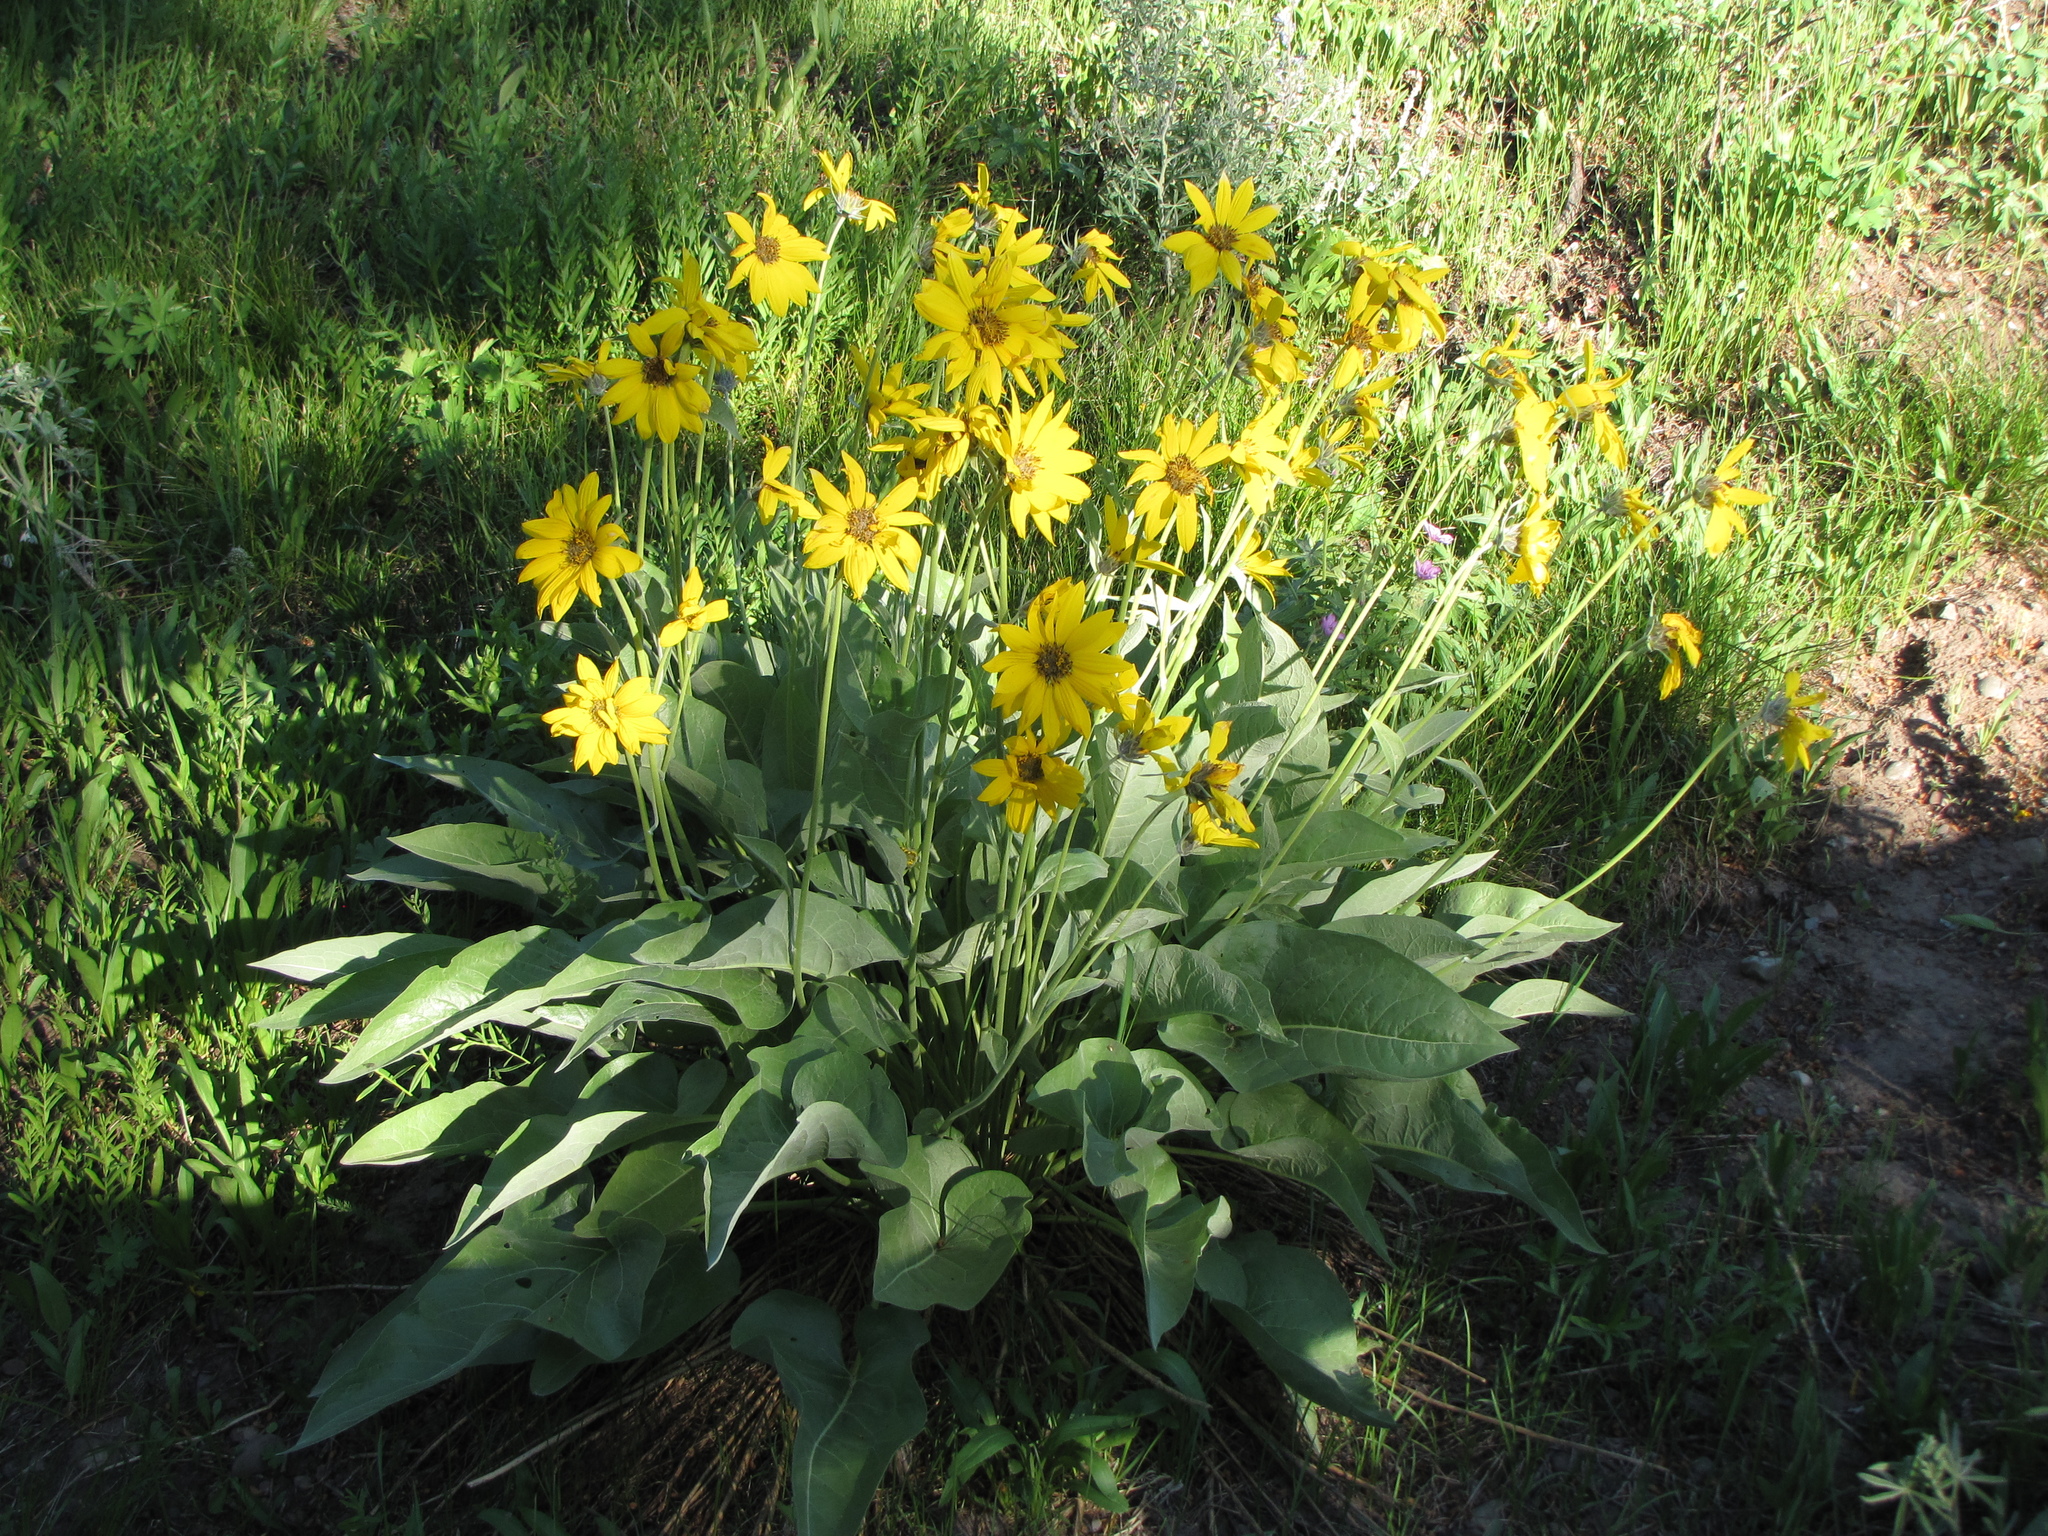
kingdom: Plantae
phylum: Tracheophyta
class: Magnoliopsida
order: Asterales
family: Asteraceae
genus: Wyethia
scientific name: Wyethia sagittata
